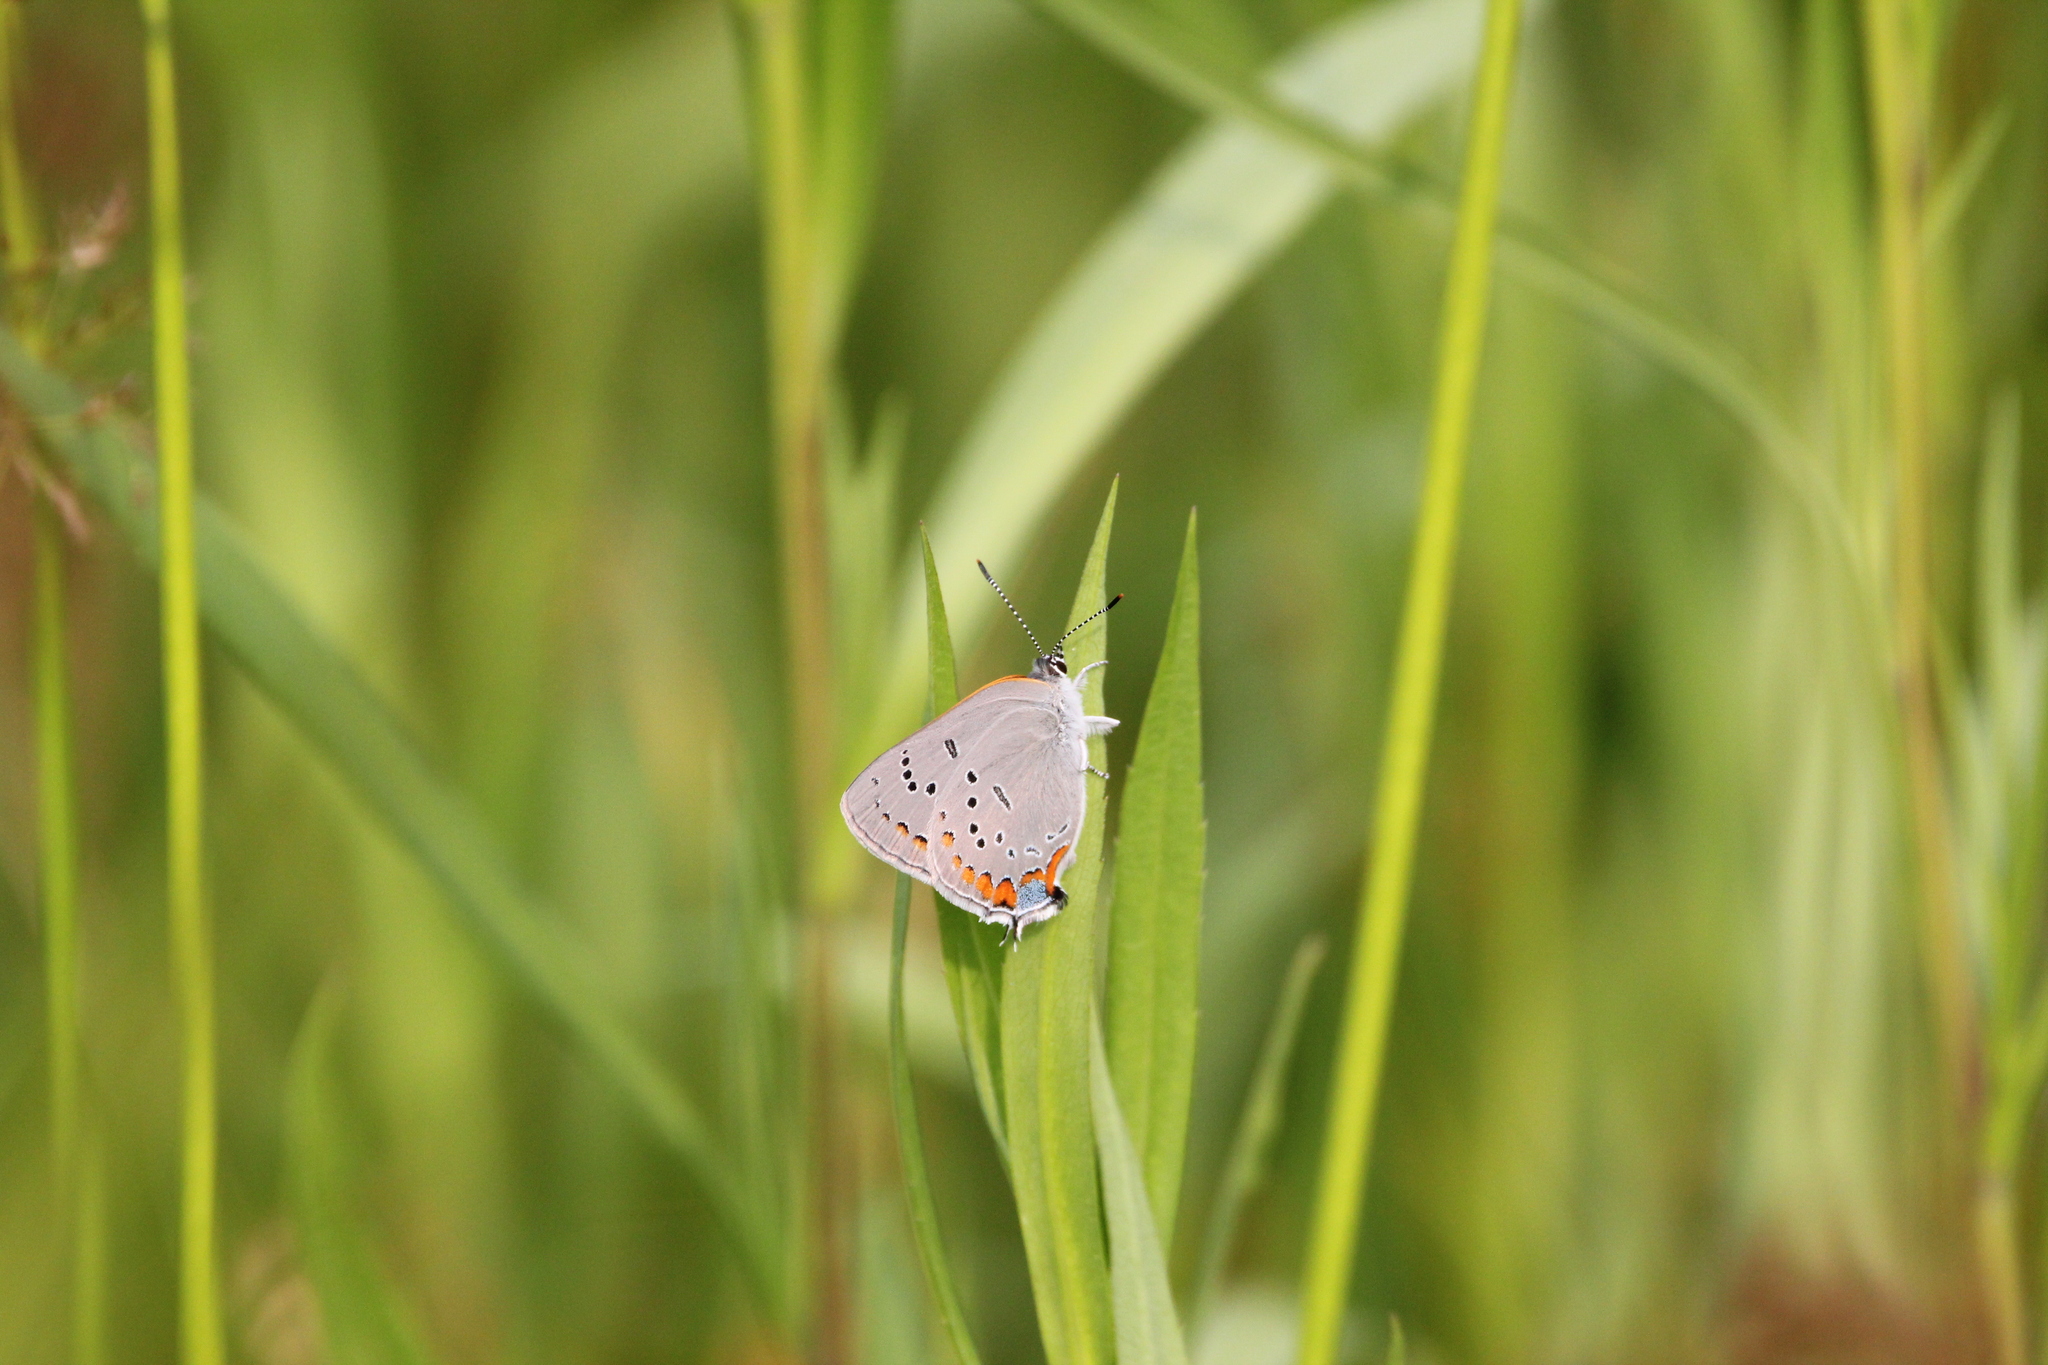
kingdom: Animalia
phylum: Arthropoda
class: Insecta
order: Lepidoptera
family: Lycaenidae
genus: Strymon
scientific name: Strymon acadica
